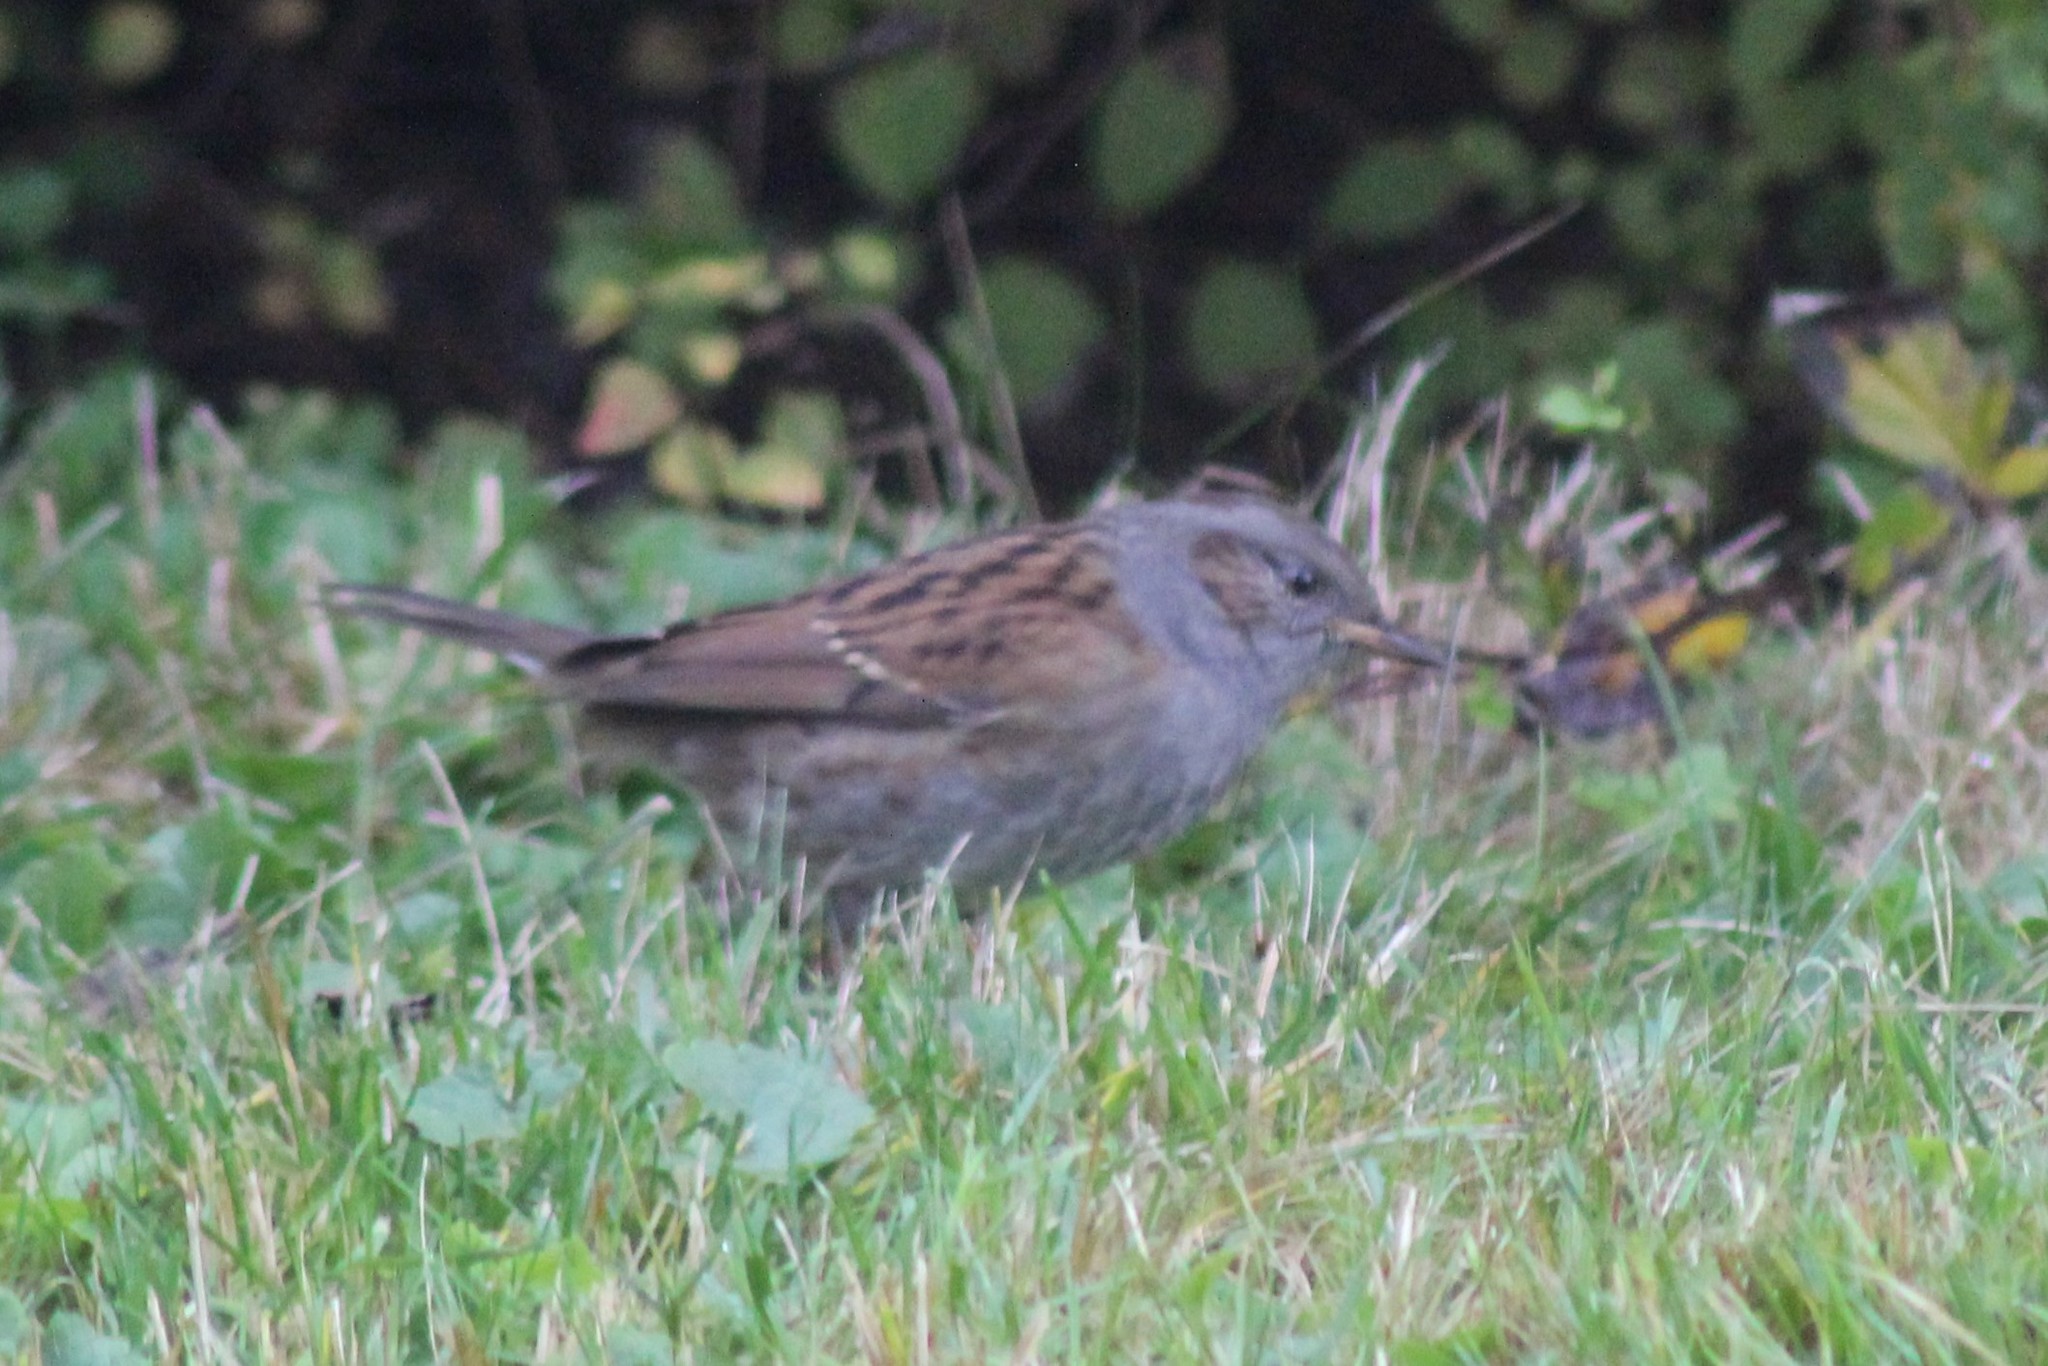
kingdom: Animalia
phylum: Chordata
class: Aves
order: Passeriformes
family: Prunellidae
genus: Prunella
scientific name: Prunella modularis
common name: Dunnock
